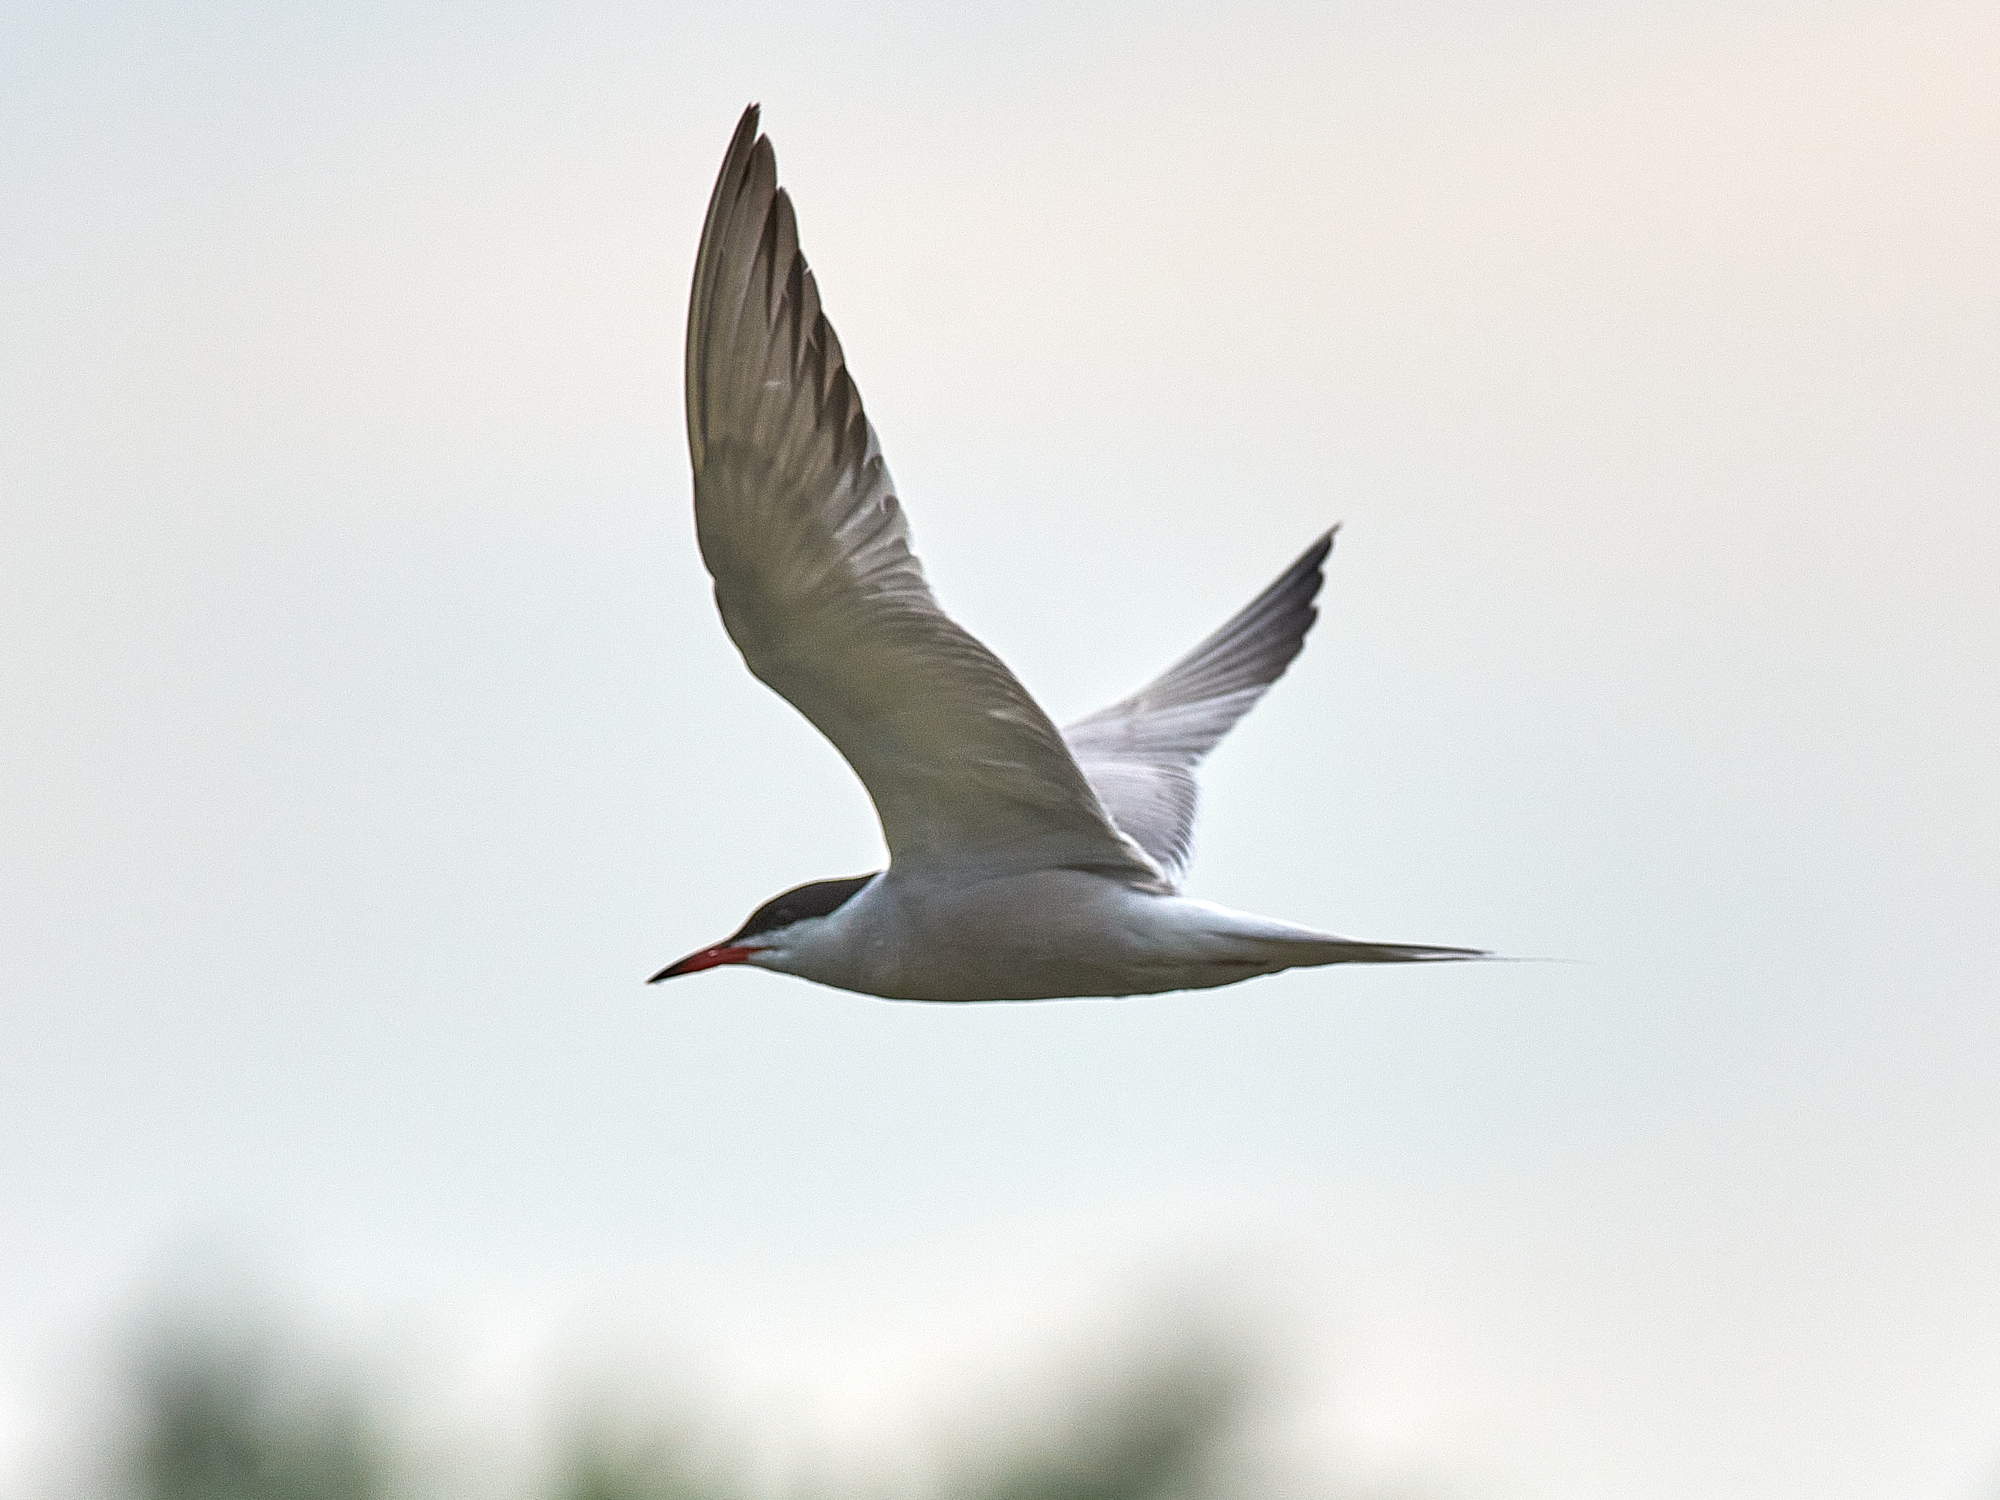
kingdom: Animalia
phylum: Chordata
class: Aves
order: Charadriiformes
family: Laridae
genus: Sterna
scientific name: Sterna hirundo
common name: Common tern
